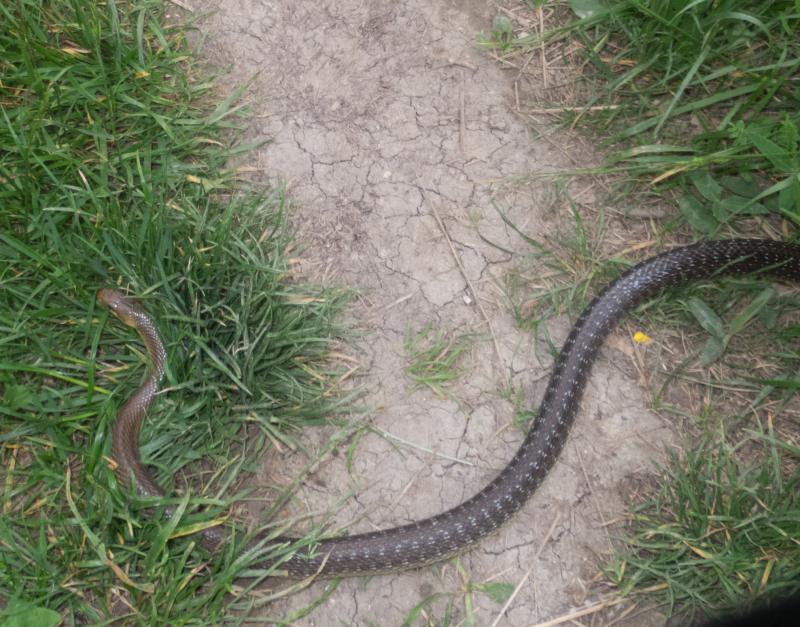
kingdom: Animalia
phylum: Chordata
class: Squamata
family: Colubridae
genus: Zamenis
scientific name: Zamenis longissimus
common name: Aesculapean snake
